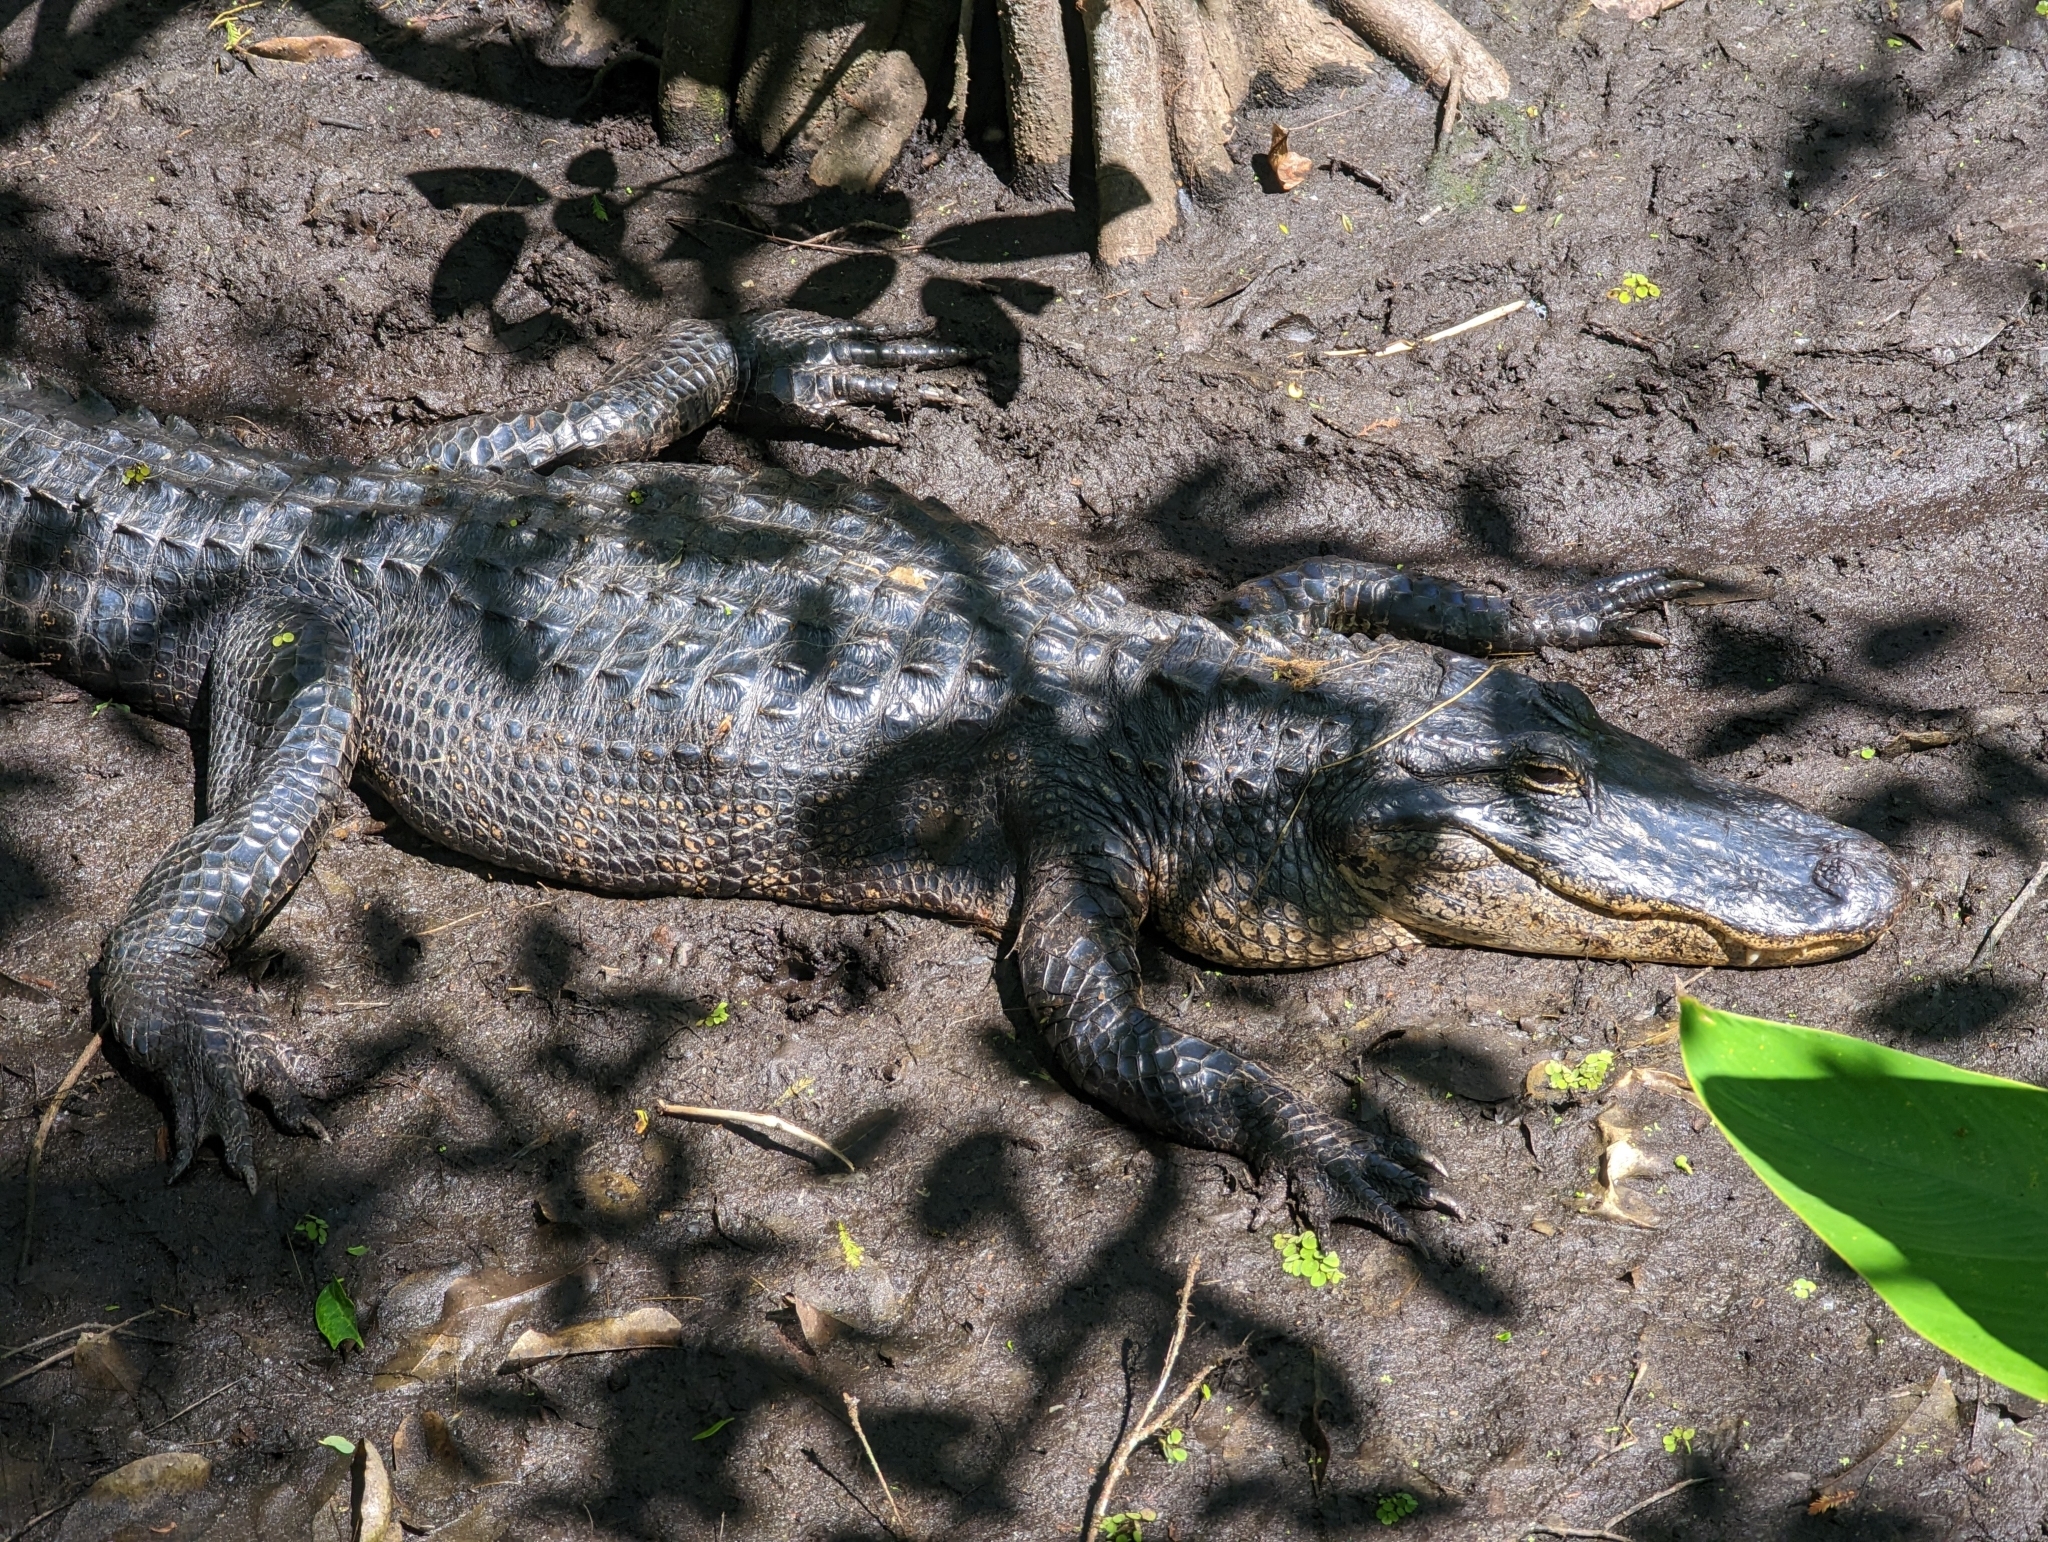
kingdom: Animalia
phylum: Chordata
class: Crocodylia
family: Alligatoridae
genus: Alligator
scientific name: Alligator mississippiensis
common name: American alligator
